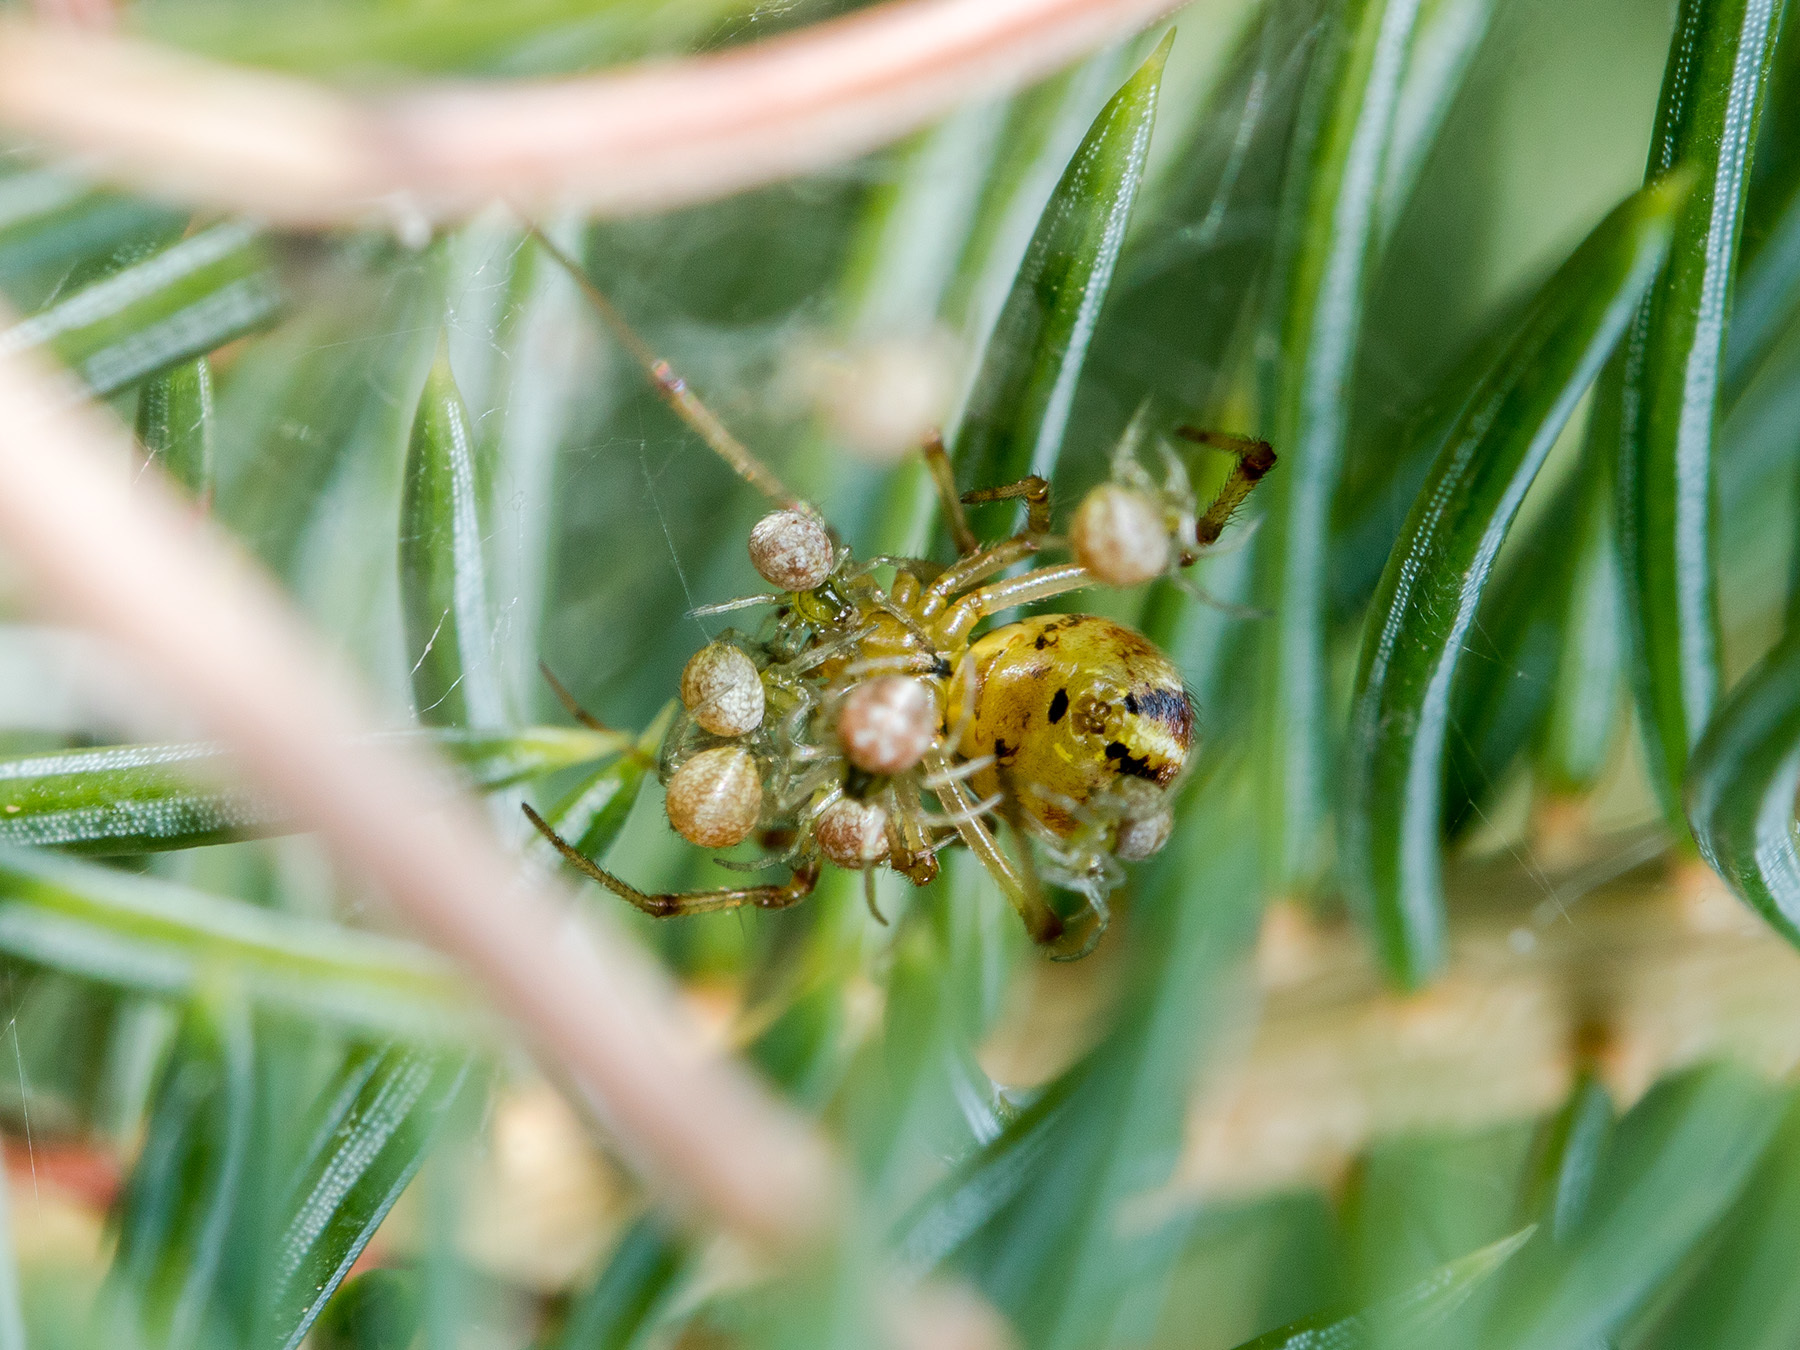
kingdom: Animalia
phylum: Arthropoda
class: Arachnida
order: Araneae
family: Theridiidae
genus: Phylloneta
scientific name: Phylloneta impressa
